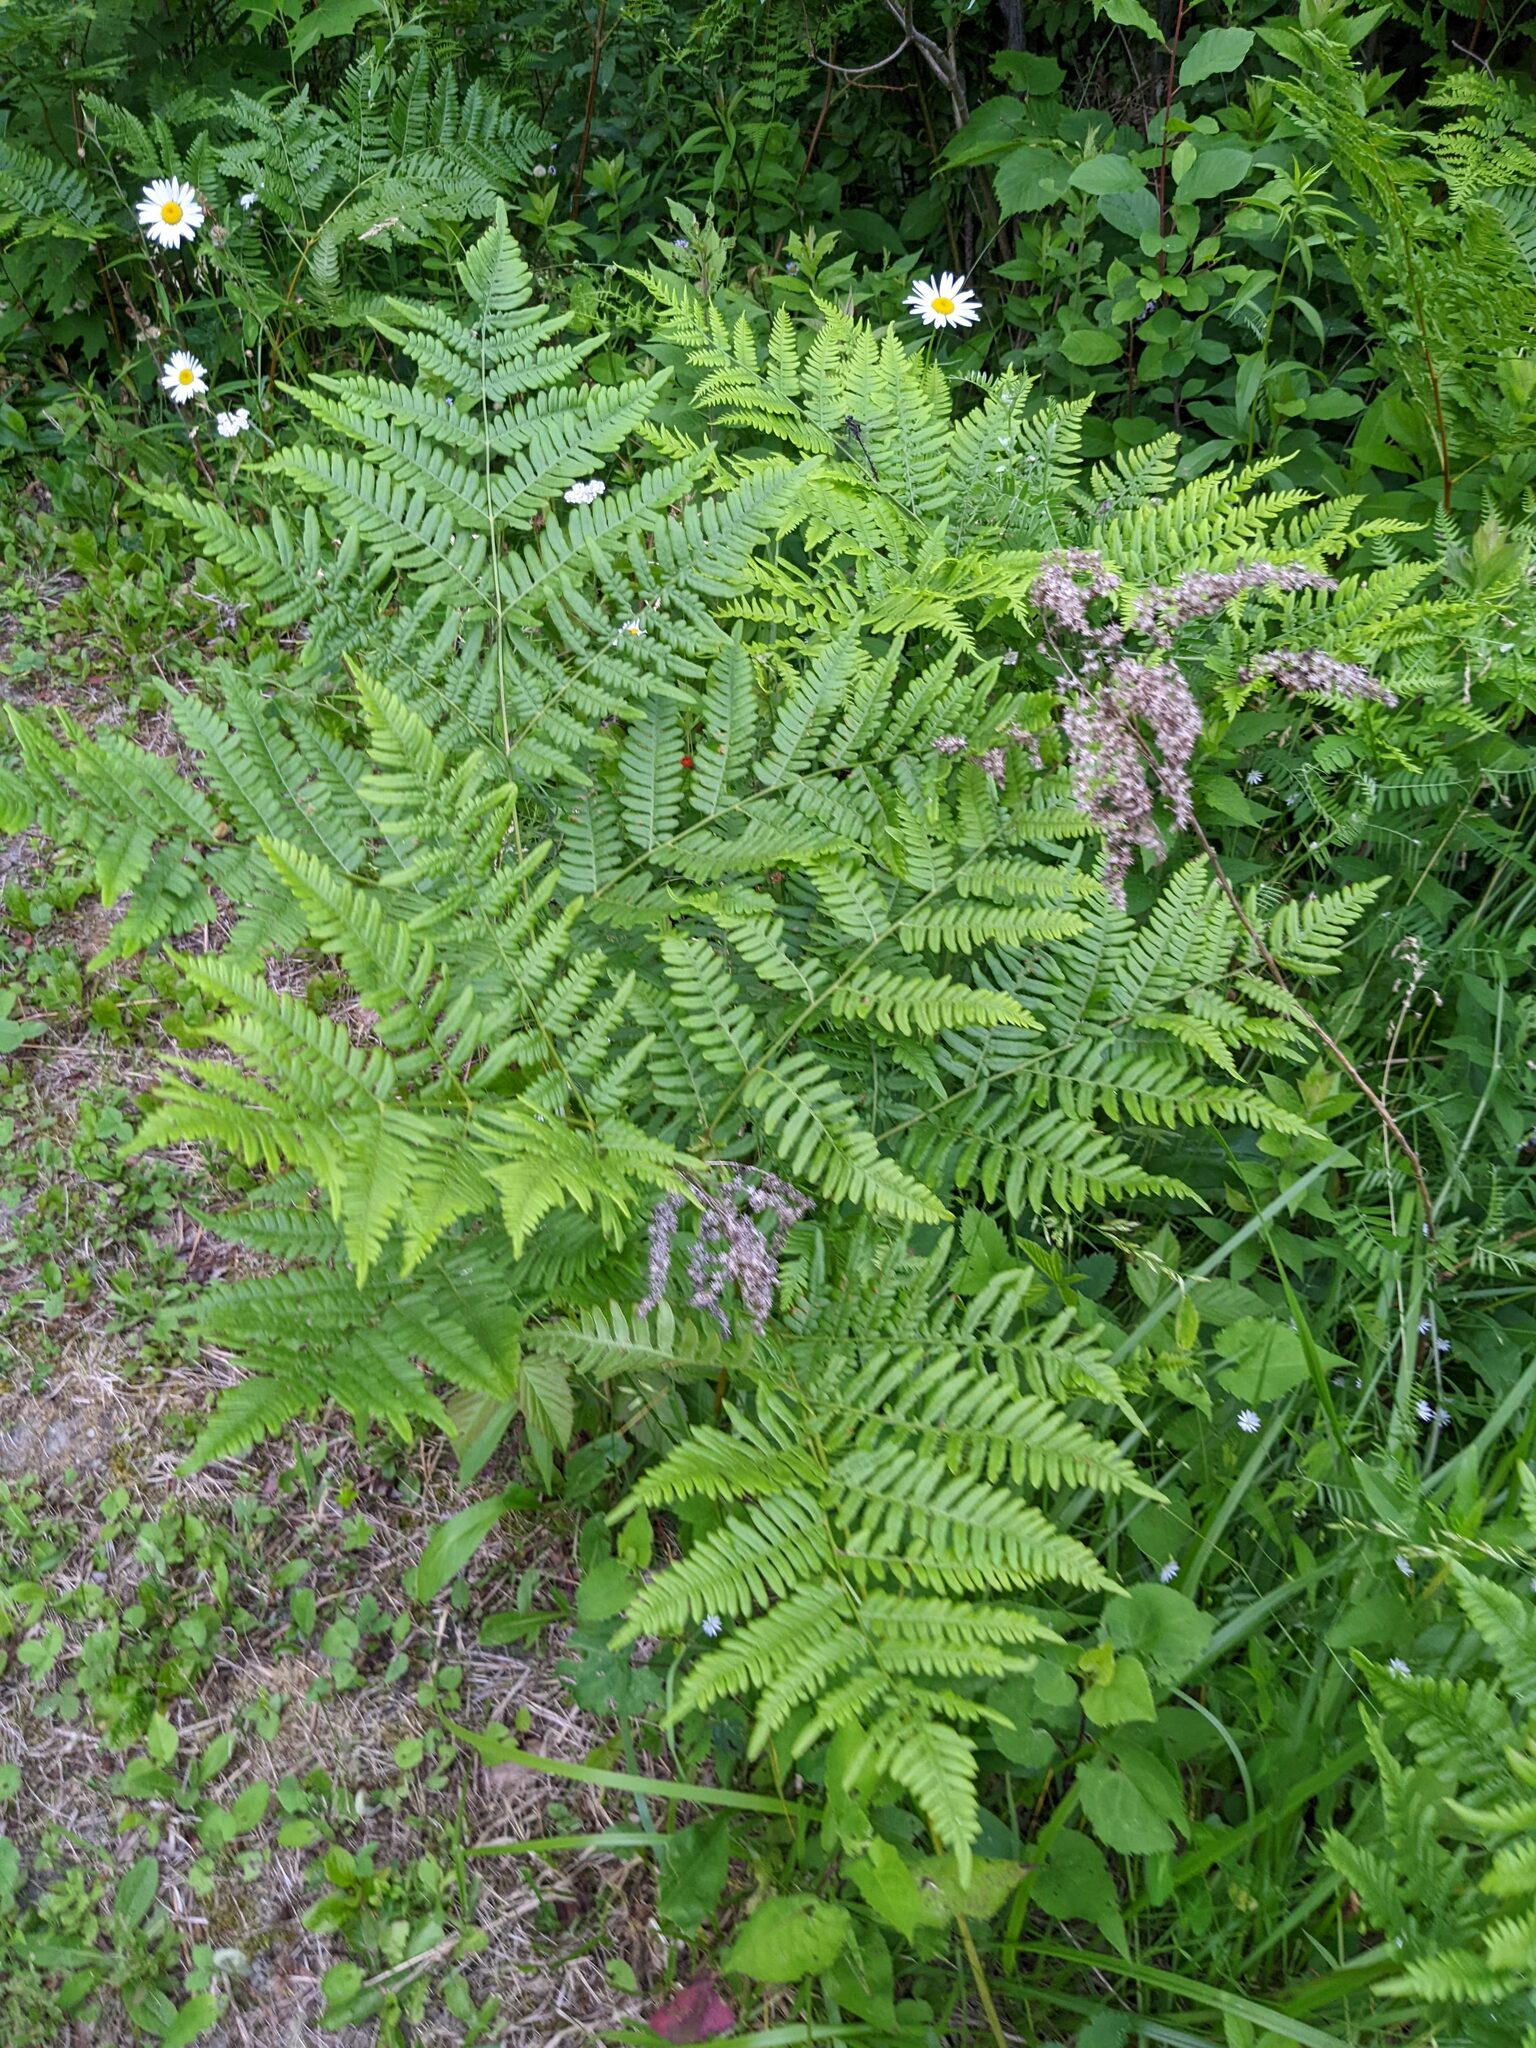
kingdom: Plantae
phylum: Tracheophyta
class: Polypodiopsida
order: Polypodiales
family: Dennstaedtiaceae
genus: Pteridium
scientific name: Pteridium aquilinum
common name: Bracken
